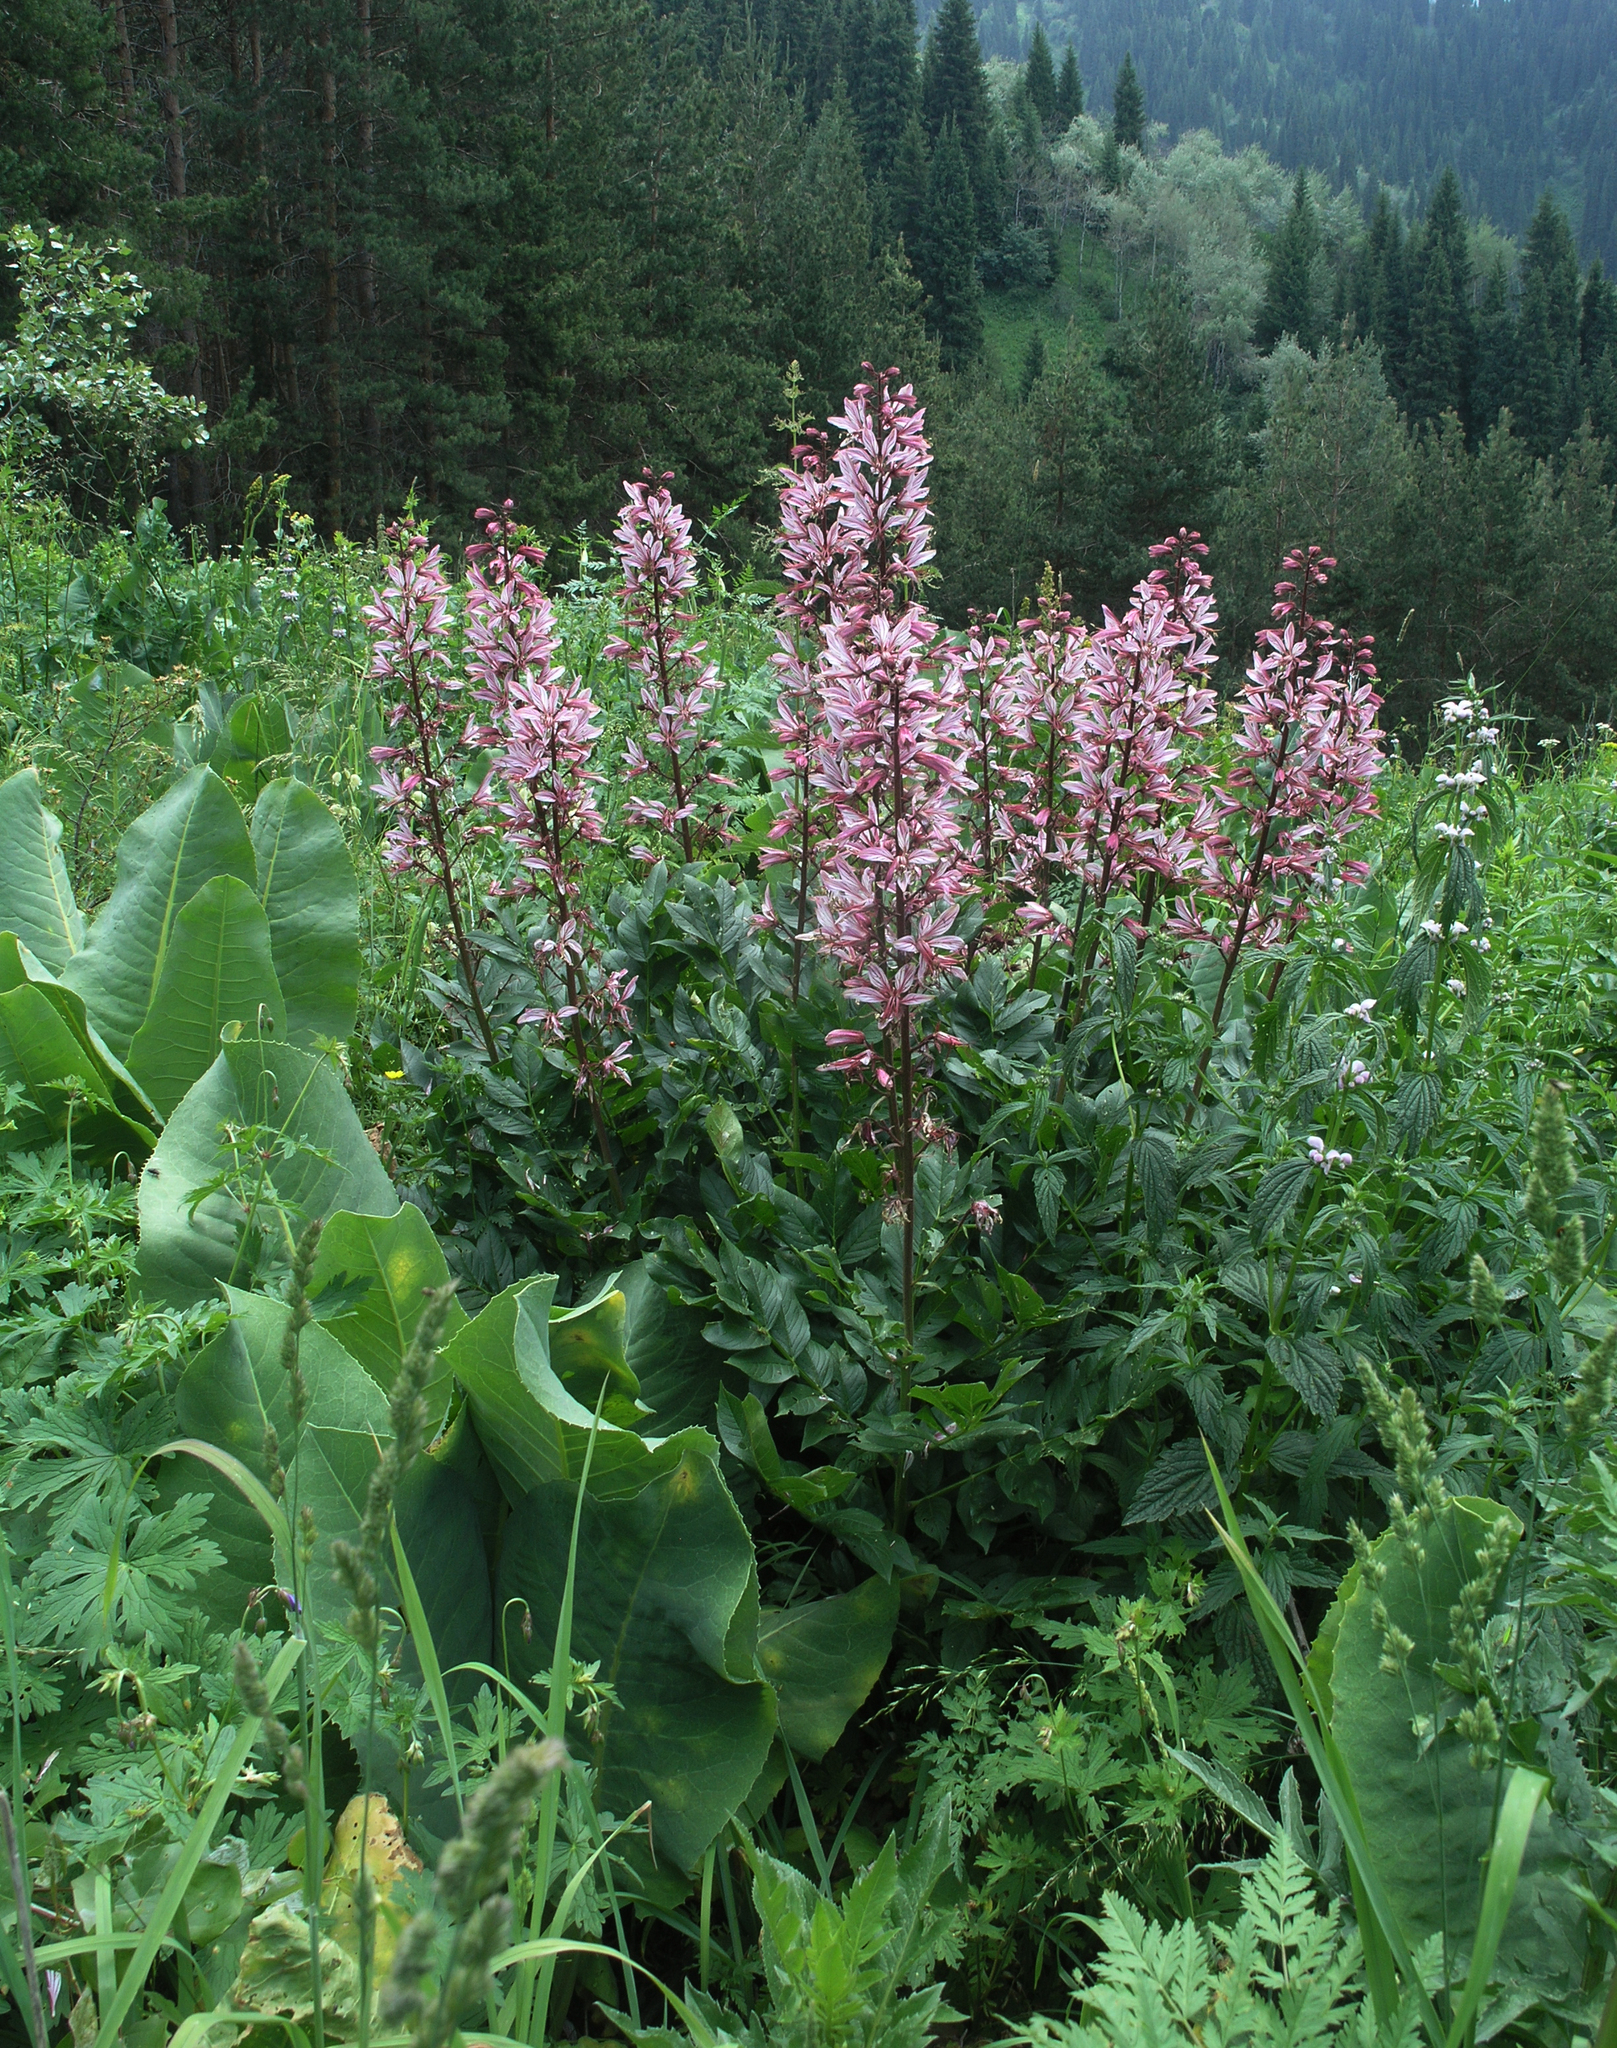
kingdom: Plantae
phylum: Tracheophyta
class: Magnoliopsida
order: Sapindales
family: Rutaceae
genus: Dictamnus
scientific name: Dictamnus albus
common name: Gasplant
